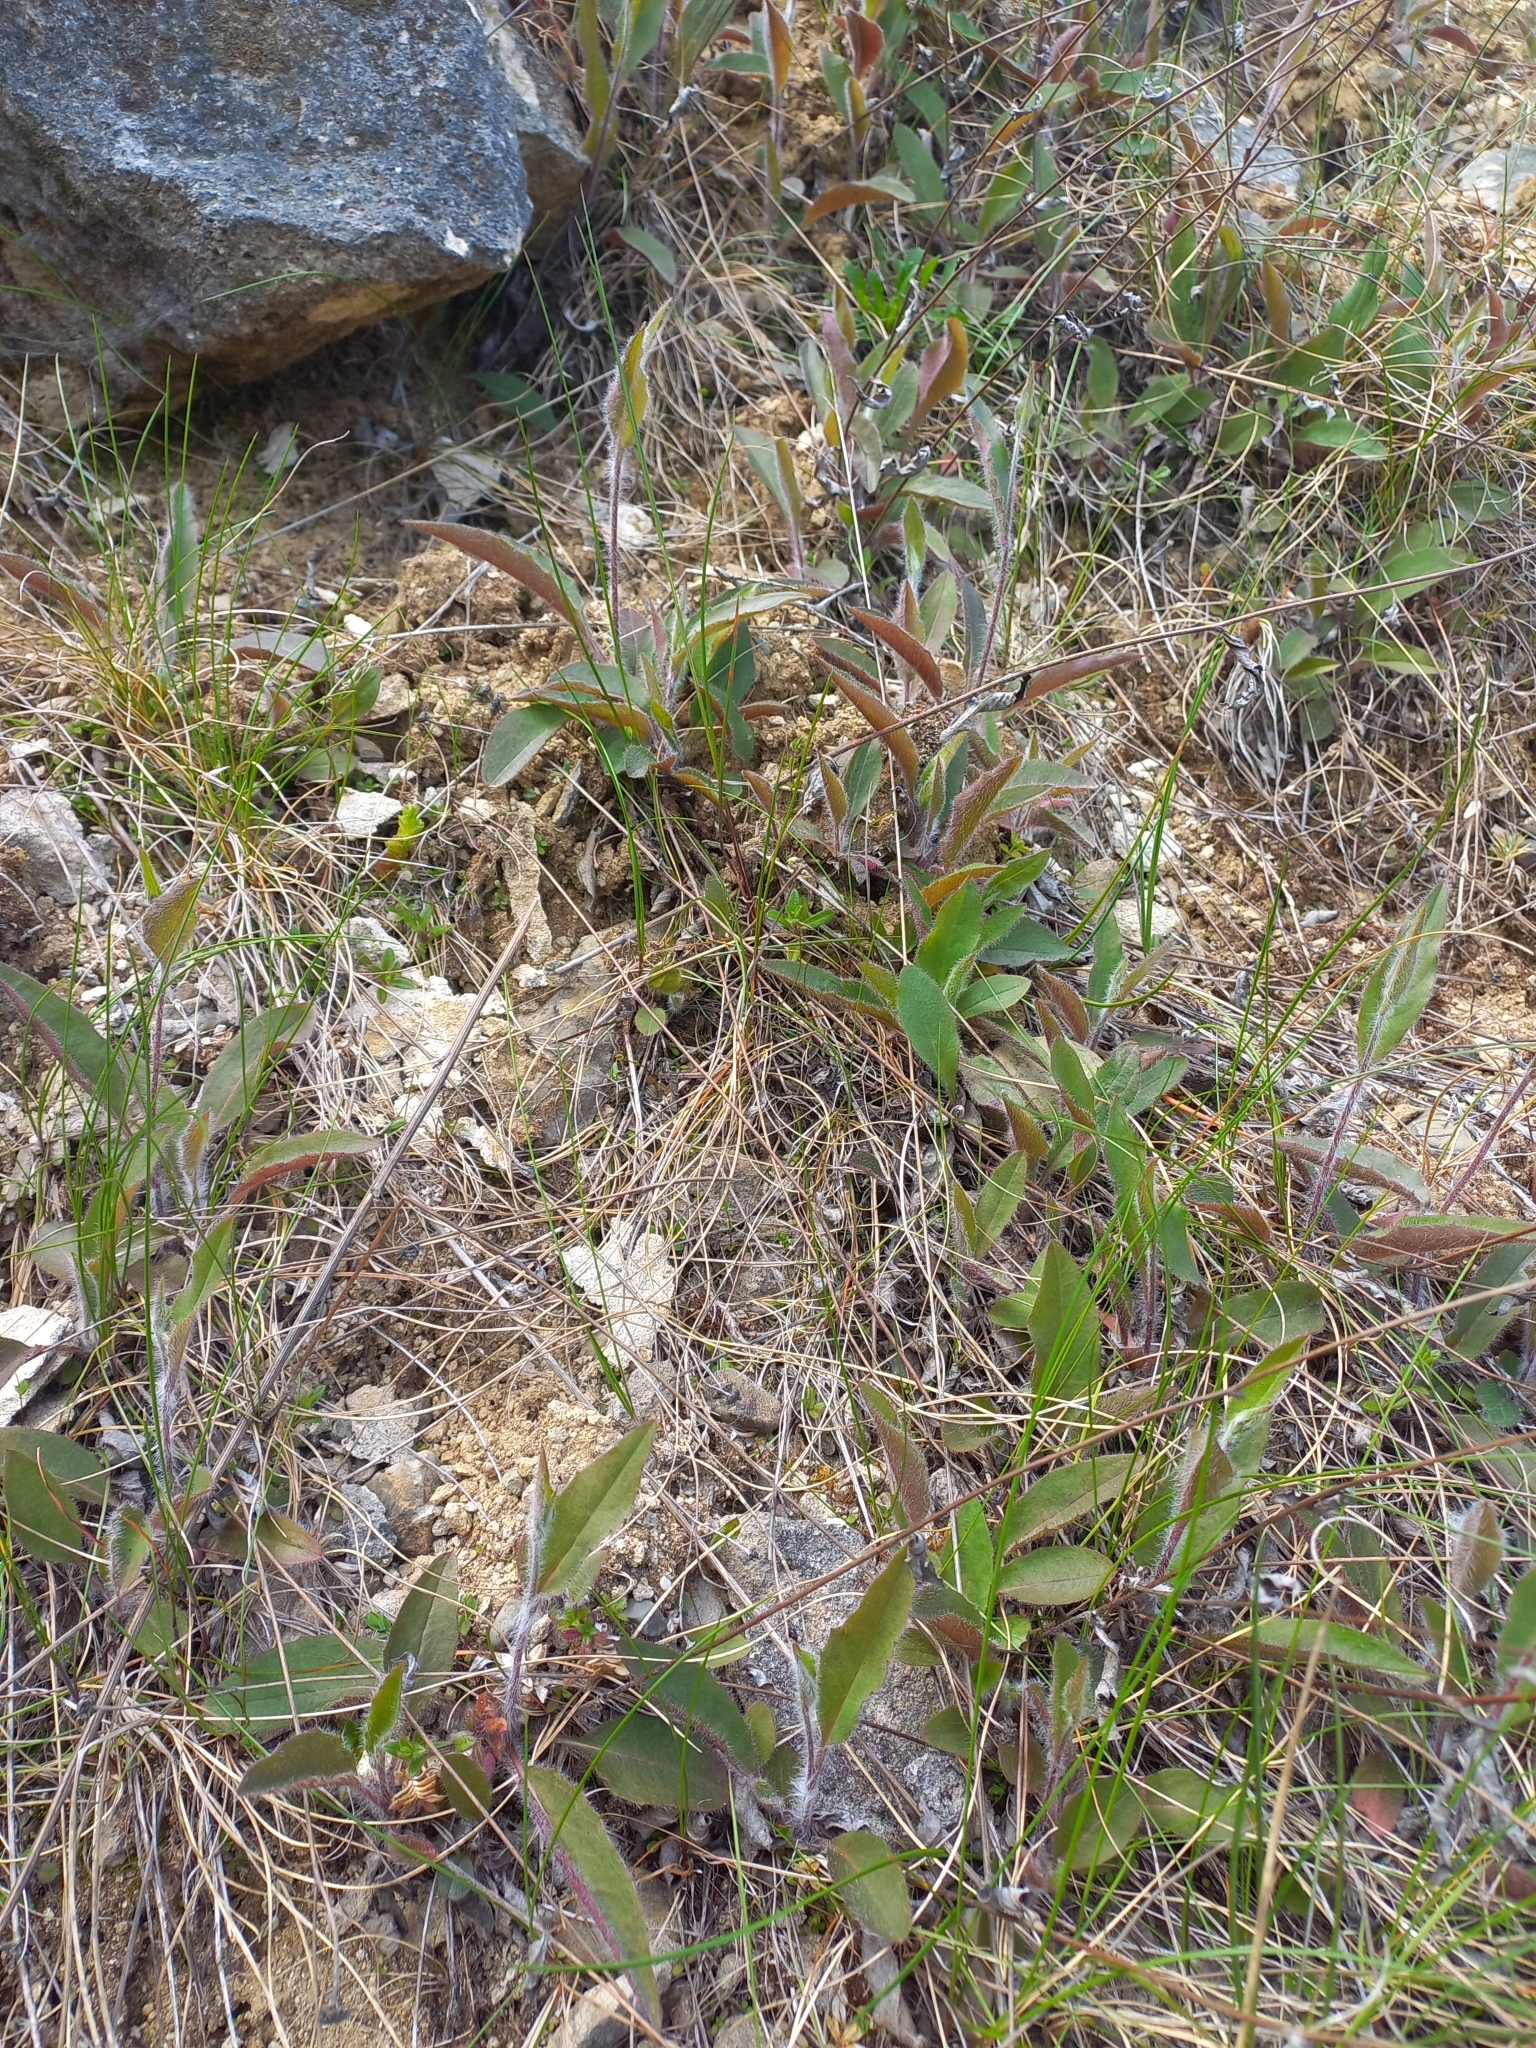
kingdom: Plantae
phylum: Tracheophyta
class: Magnoliopsida
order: Asterales
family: Asteraceae
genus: Hieracium
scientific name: Hieracium lepidulum
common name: Irregular-toothed hawkweed
